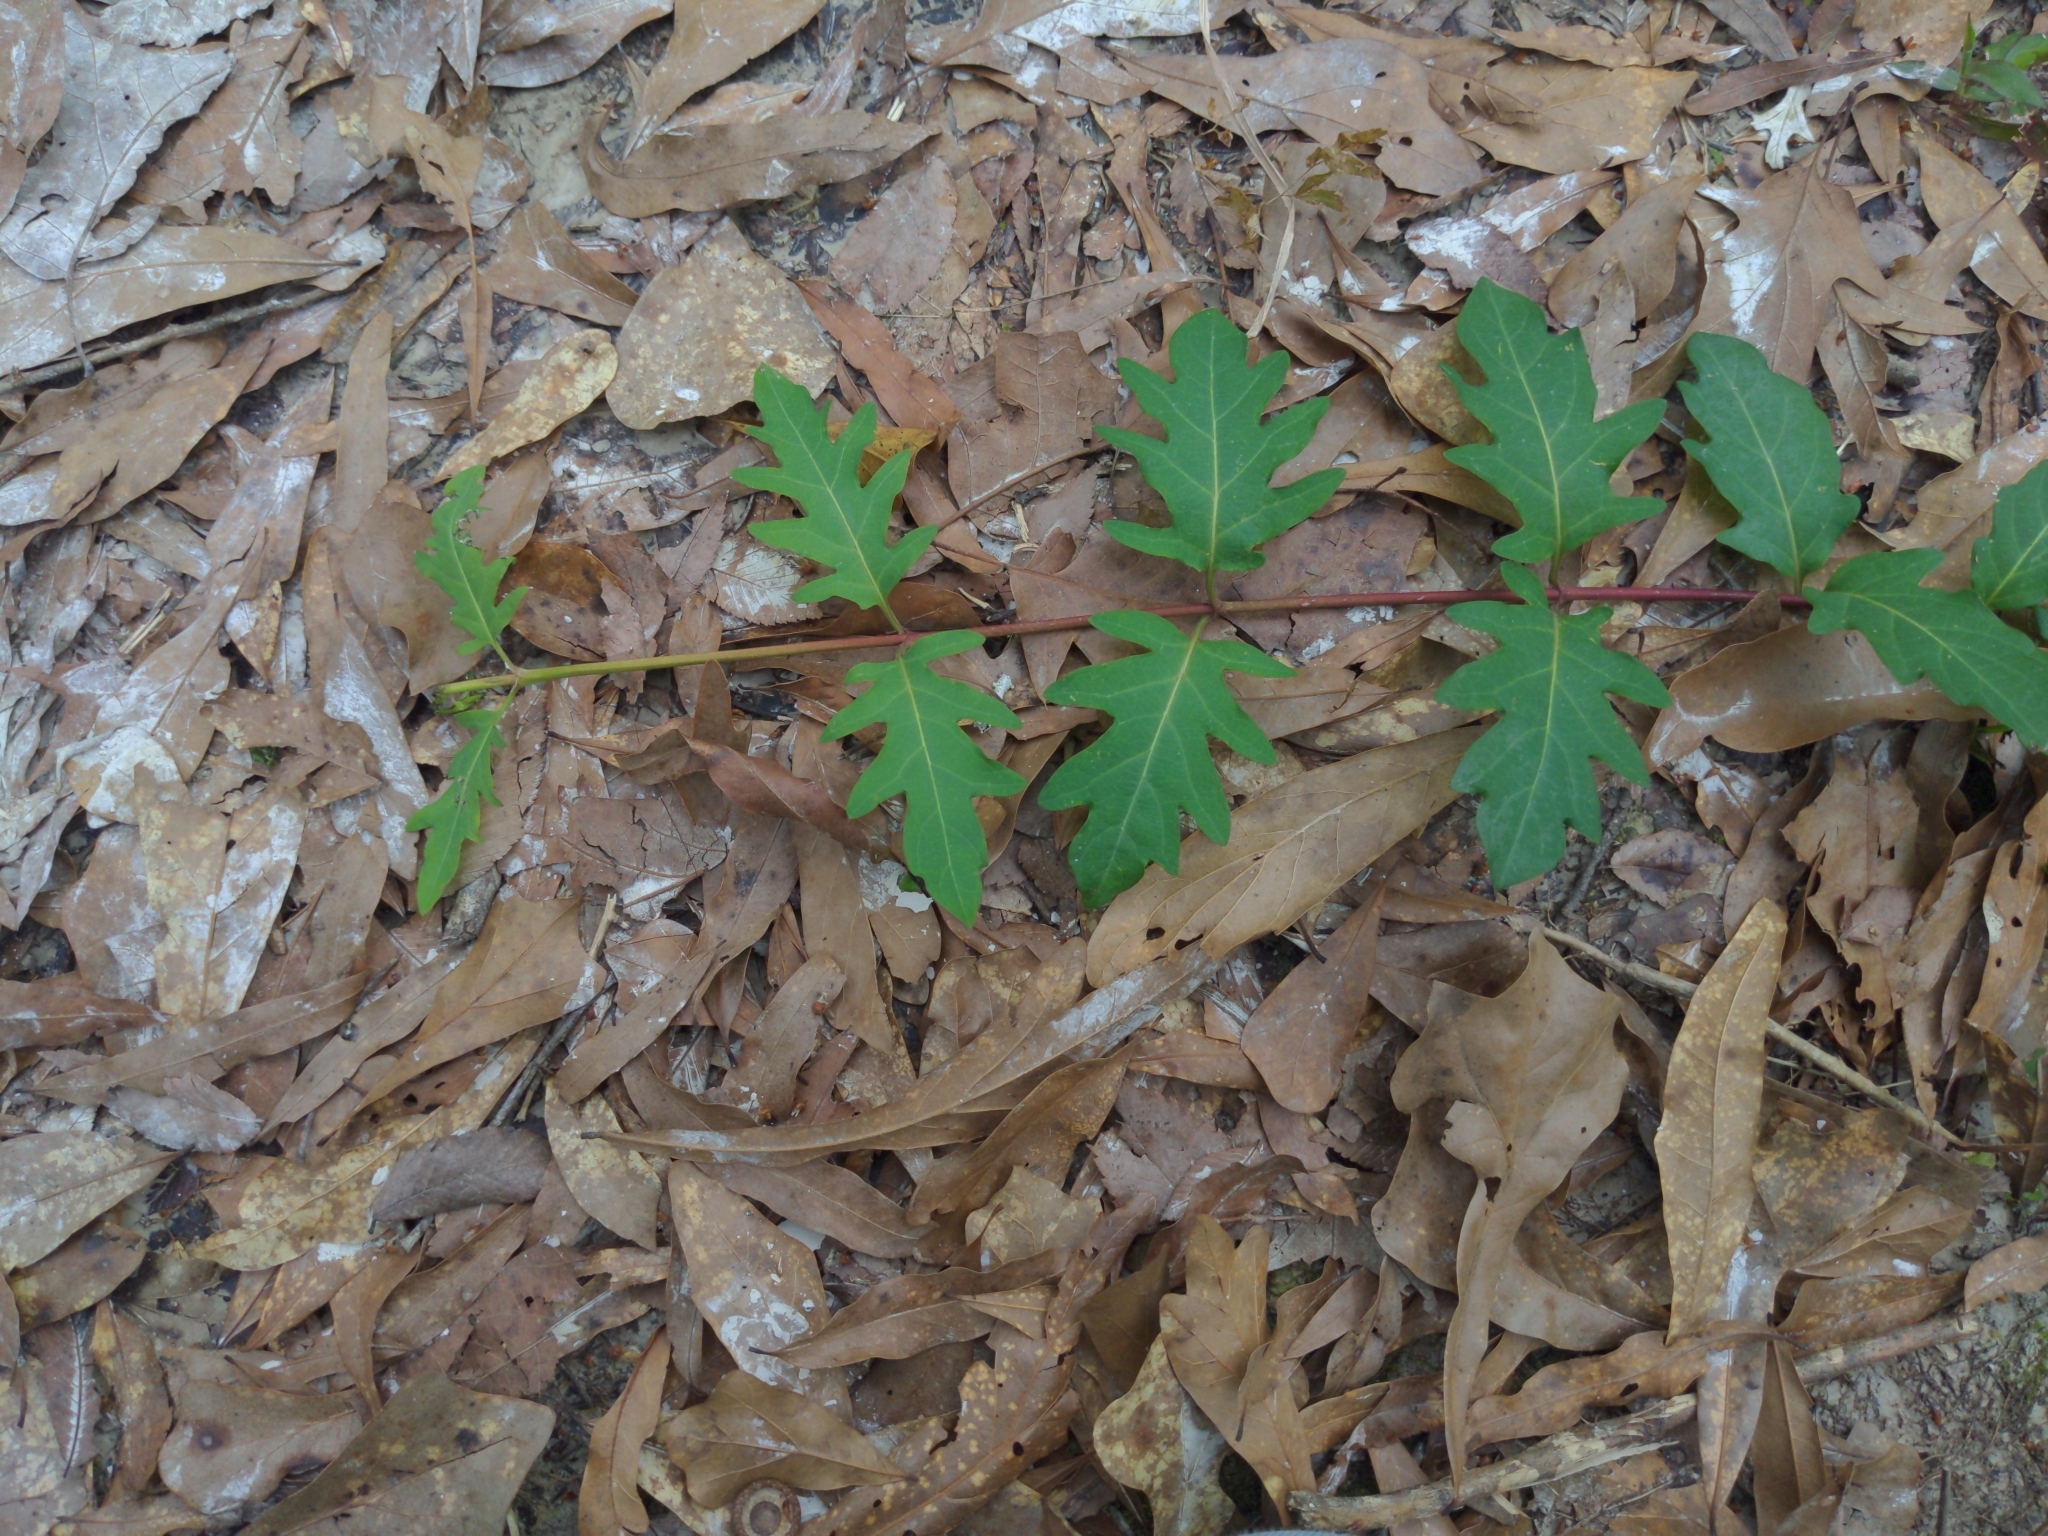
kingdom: Plantae
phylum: Tracheophyta
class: Magnoliopsida
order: Dipsacales
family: Caprifoliaceae
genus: Lonicera
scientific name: Lonicera japonica
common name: Japanese honeysuckle
